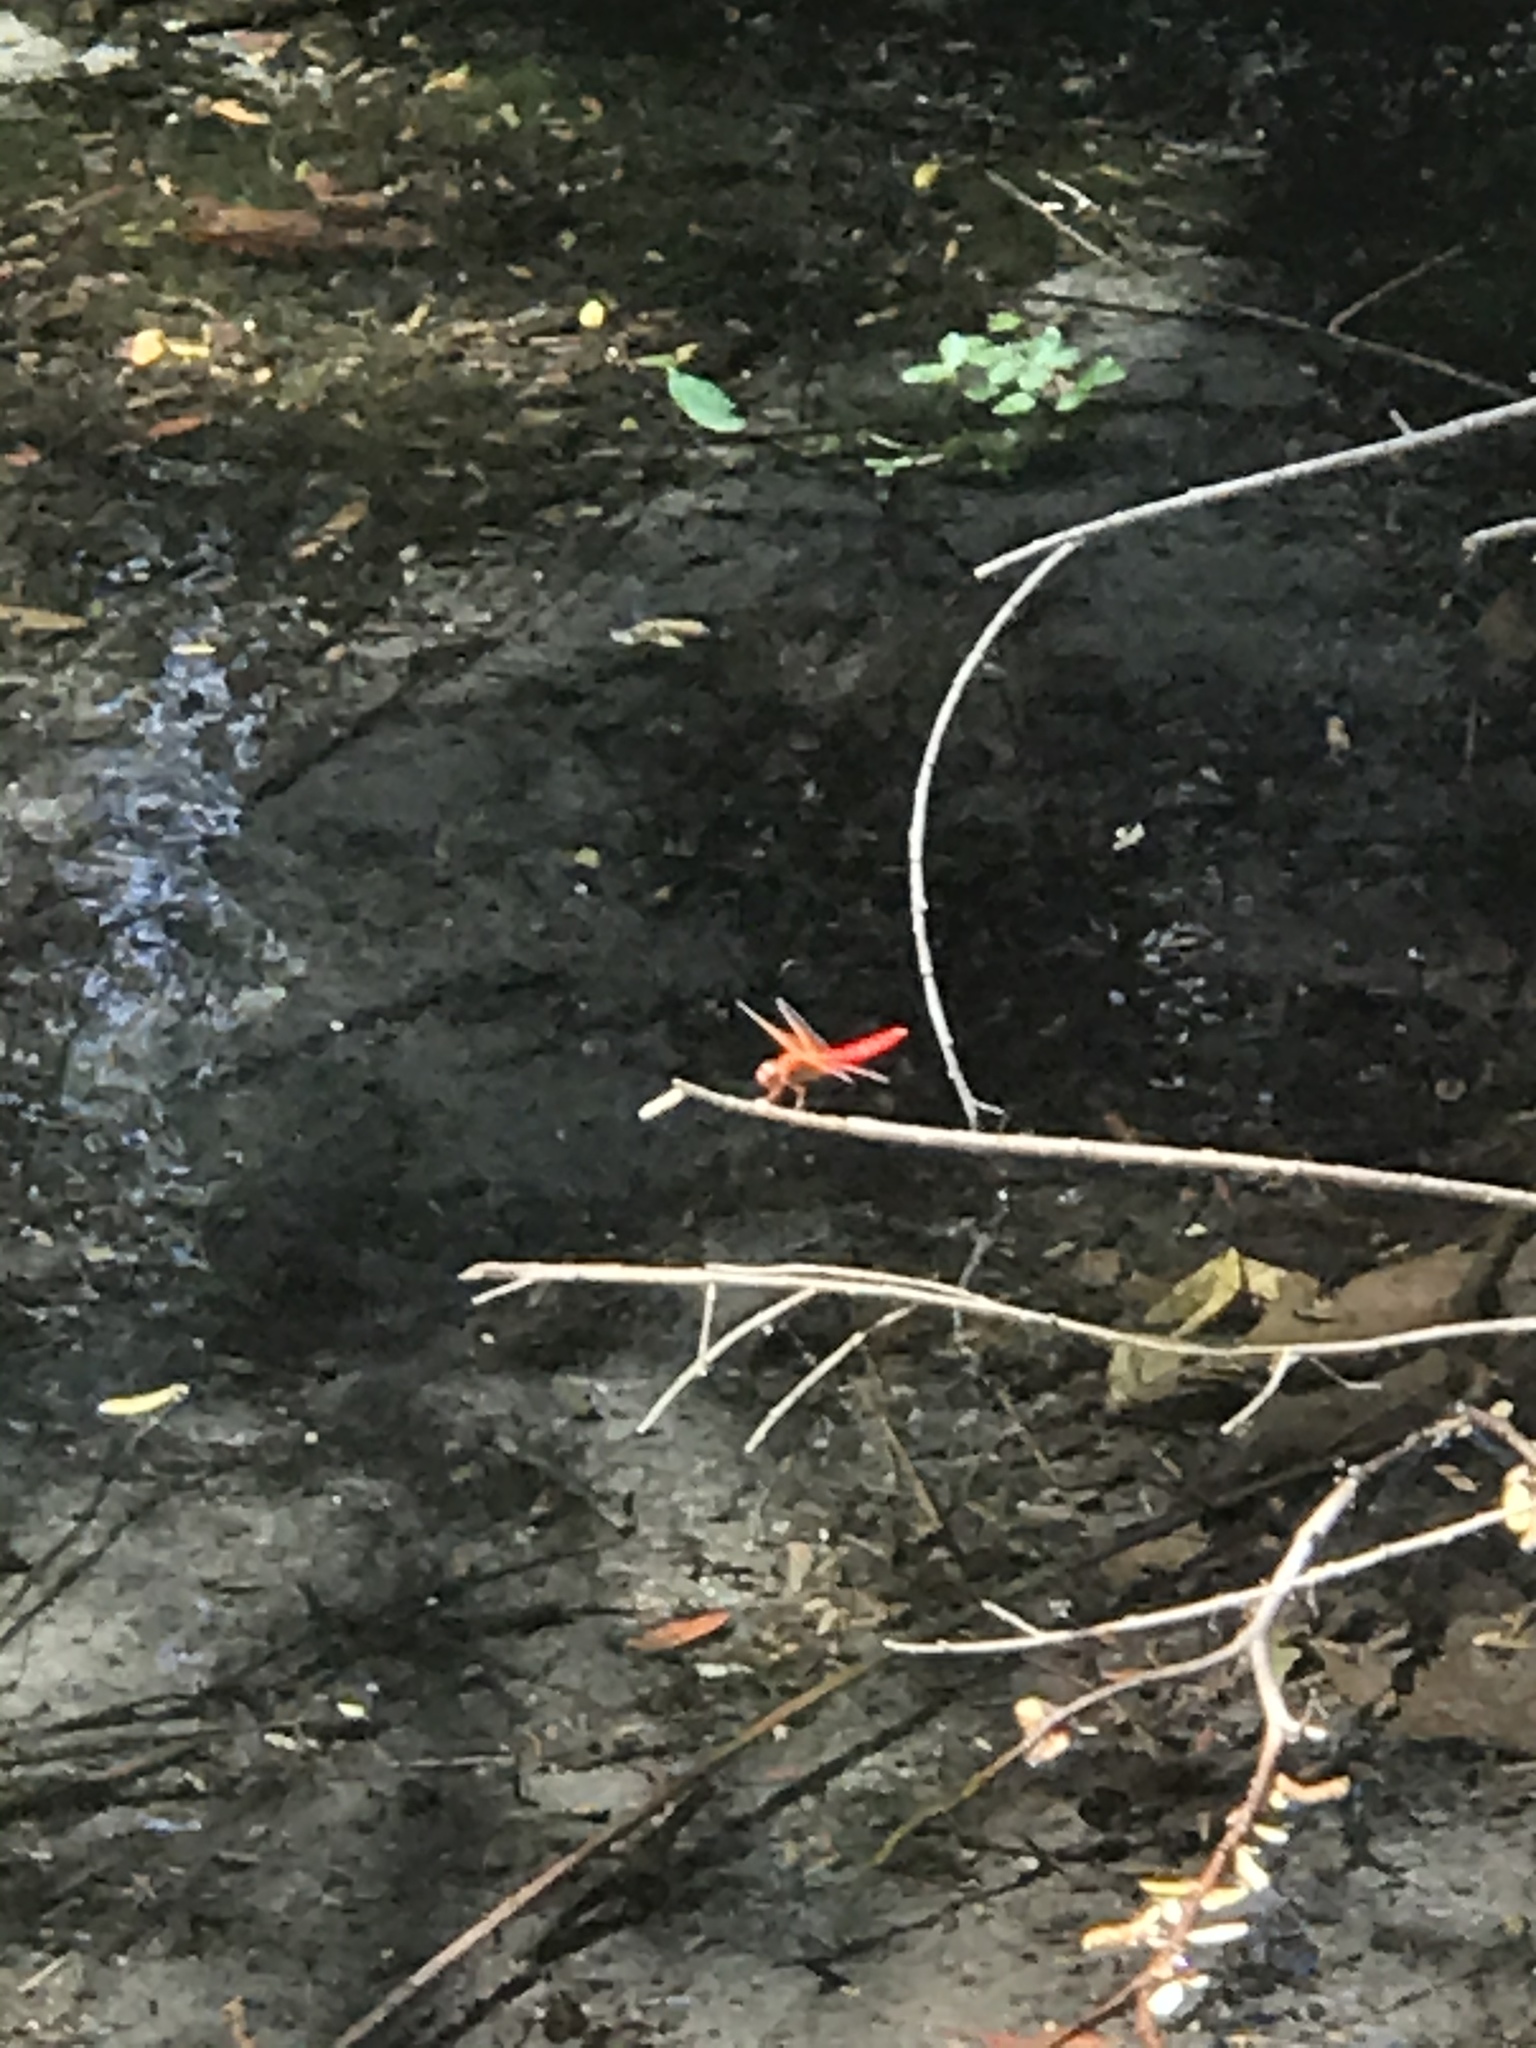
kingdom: Animalia
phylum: Arthropoda
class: Insecta
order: Odonata
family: Libellulidae
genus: Libellula
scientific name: Libellula croceipennis
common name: Neon skimmer
